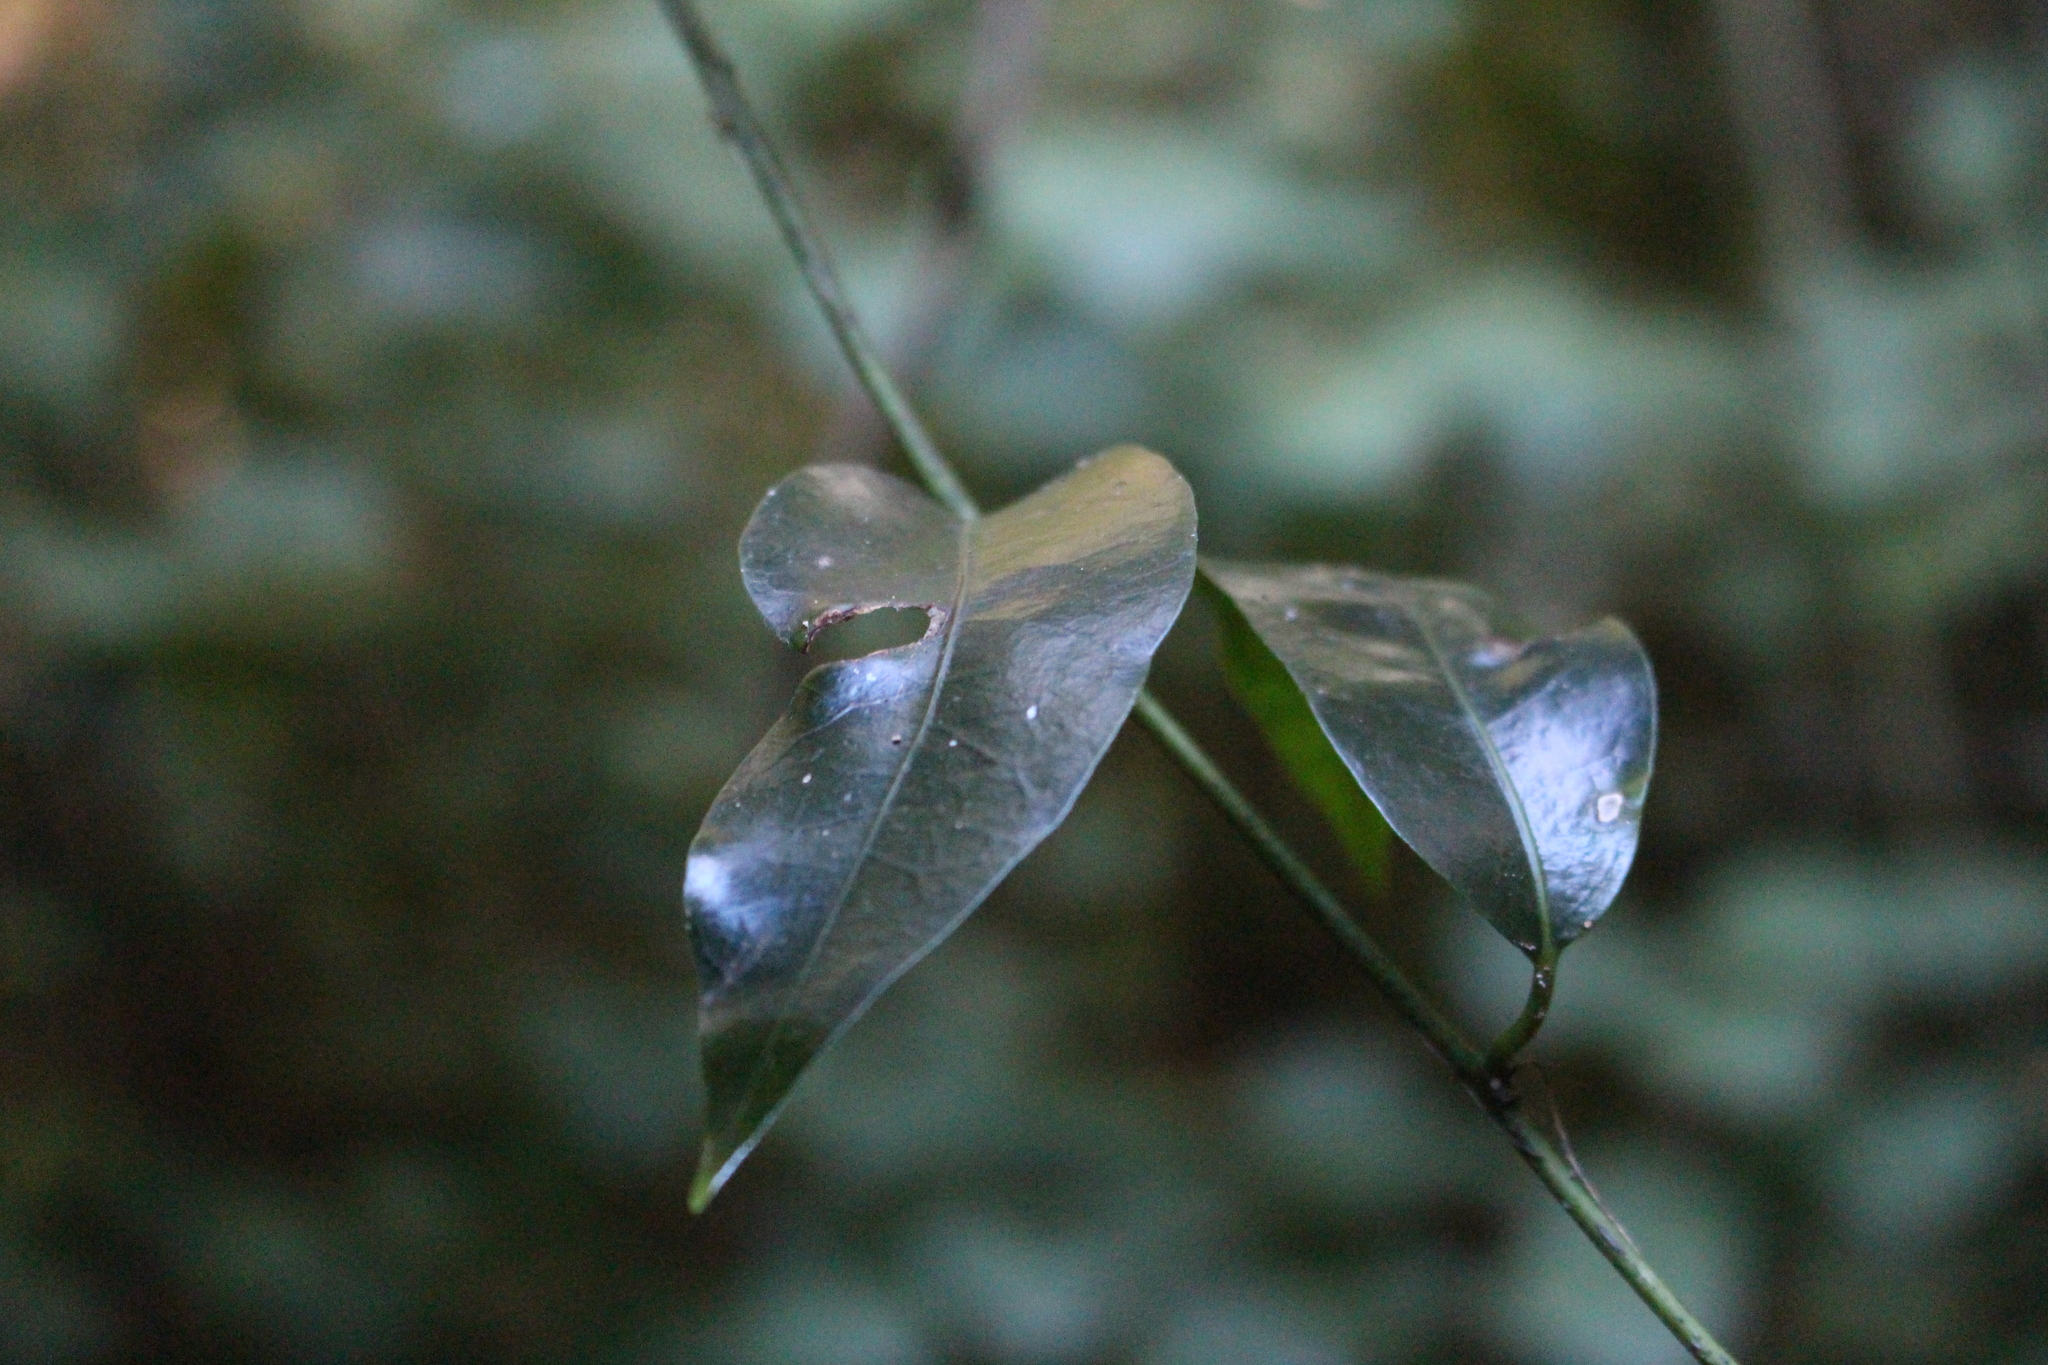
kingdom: Plantae
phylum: Tracheophyta
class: Magnoliopsida
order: Malpighiales
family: Passifloraceae
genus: Passiflora
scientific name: Passiflora tetrandra
